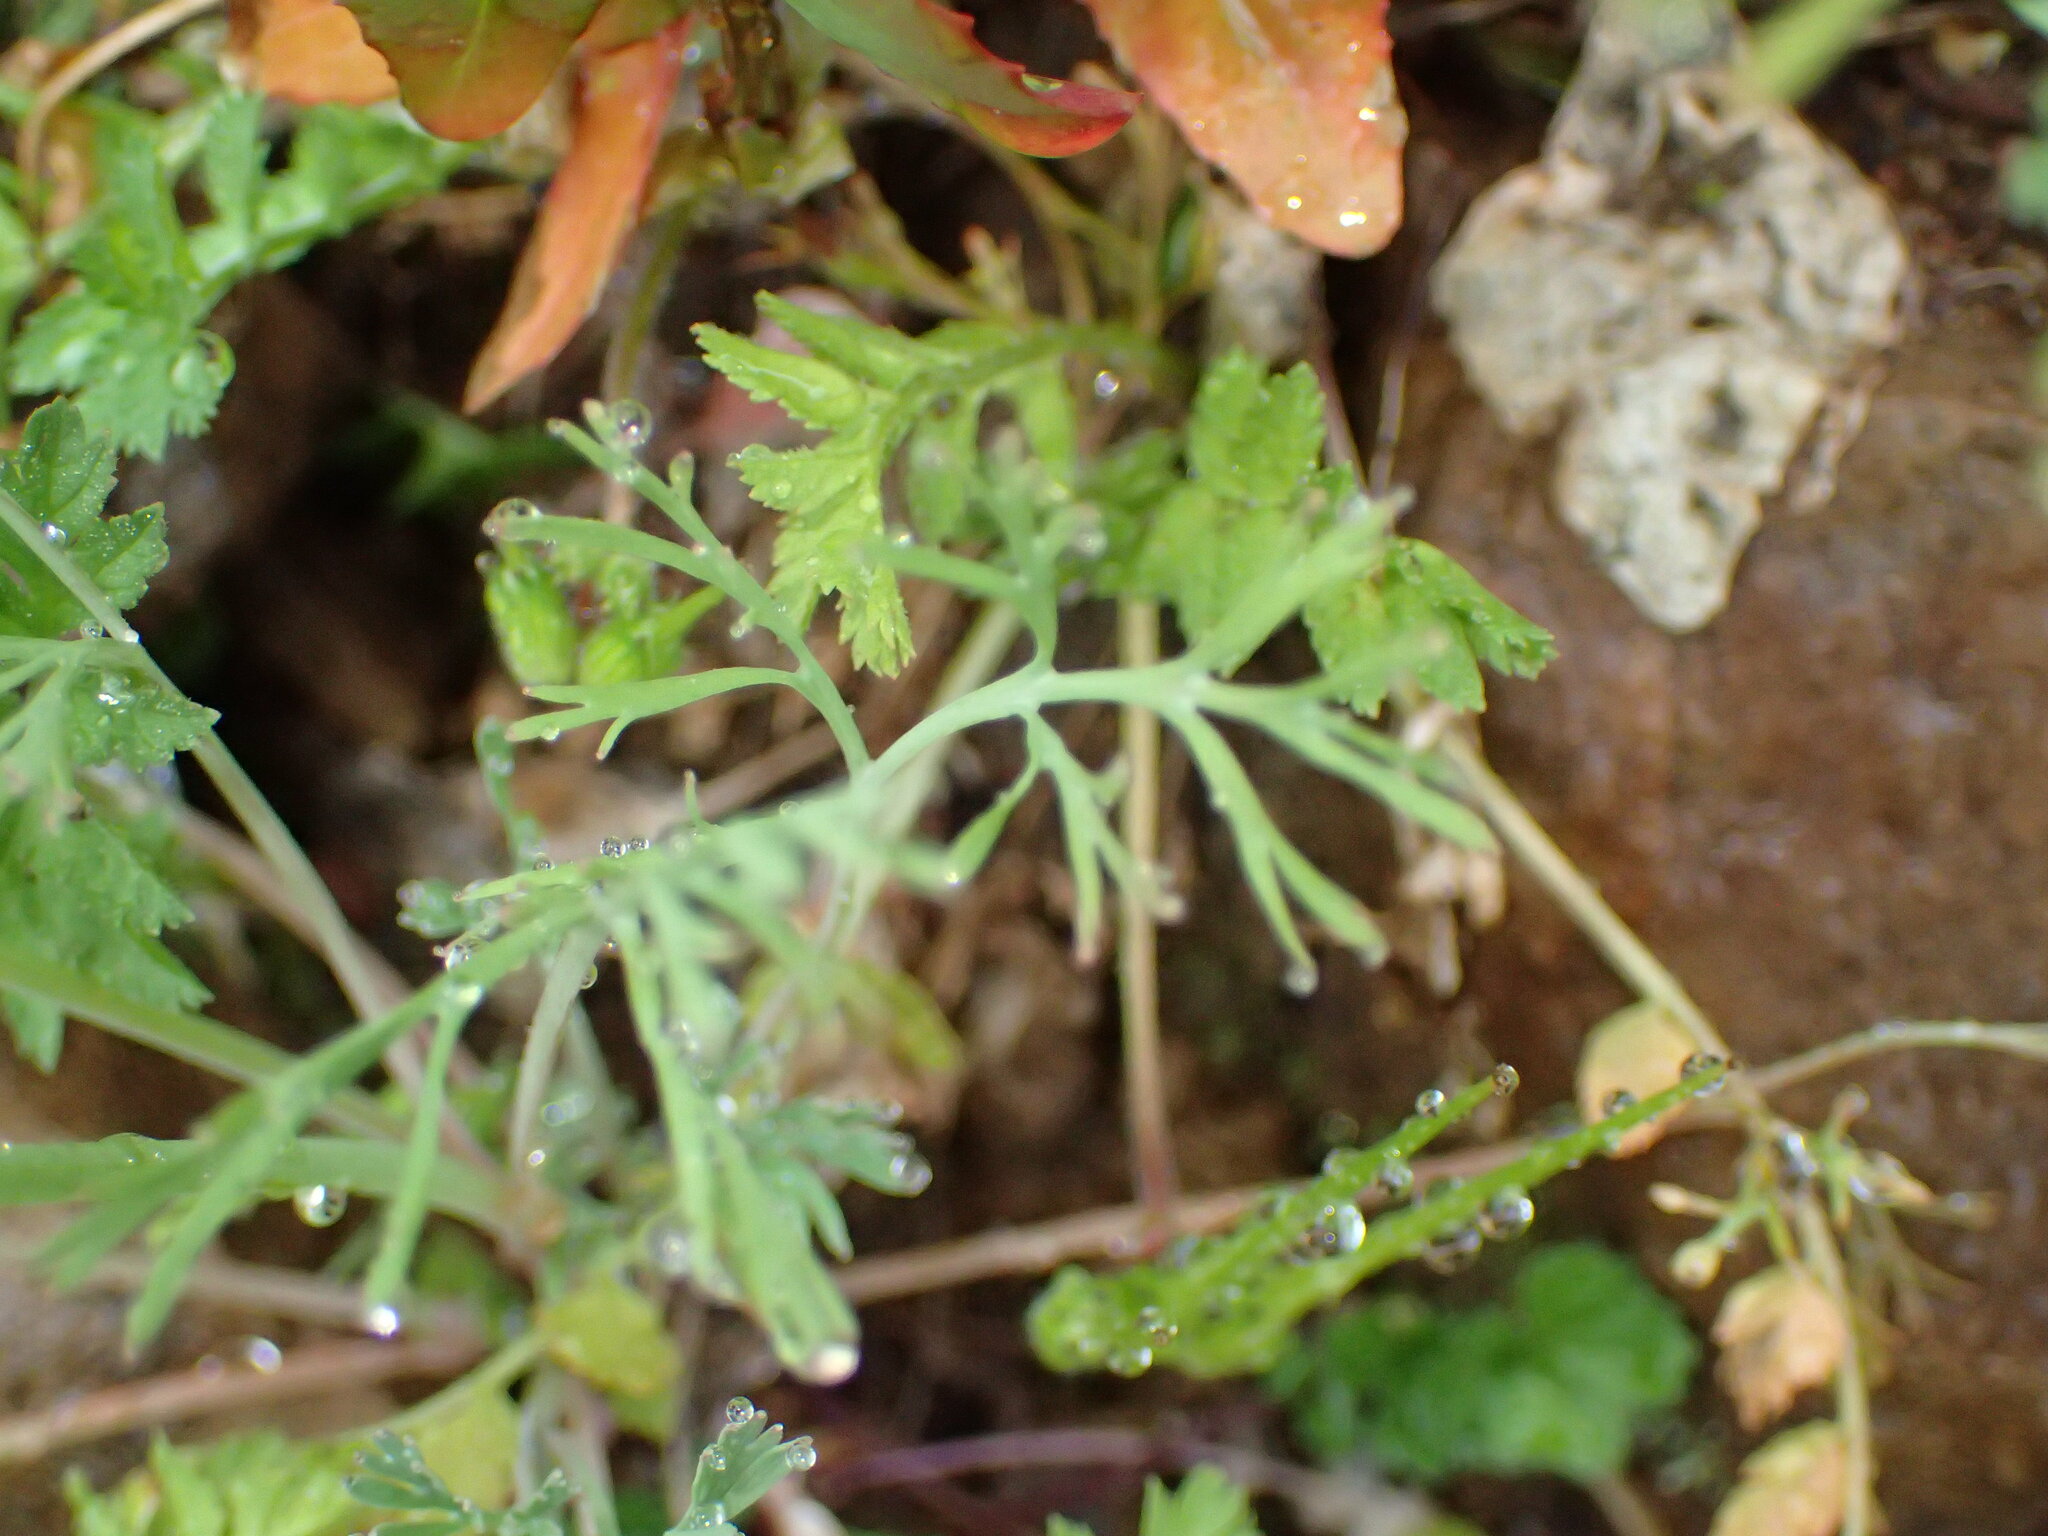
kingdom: Plantae
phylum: Tracheophyta
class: Magnoliopsida
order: Ranunculales
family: Papaveraceae
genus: Eschscholzia
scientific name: Eschscholzia caespitosa
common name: Tufted california-poppy
